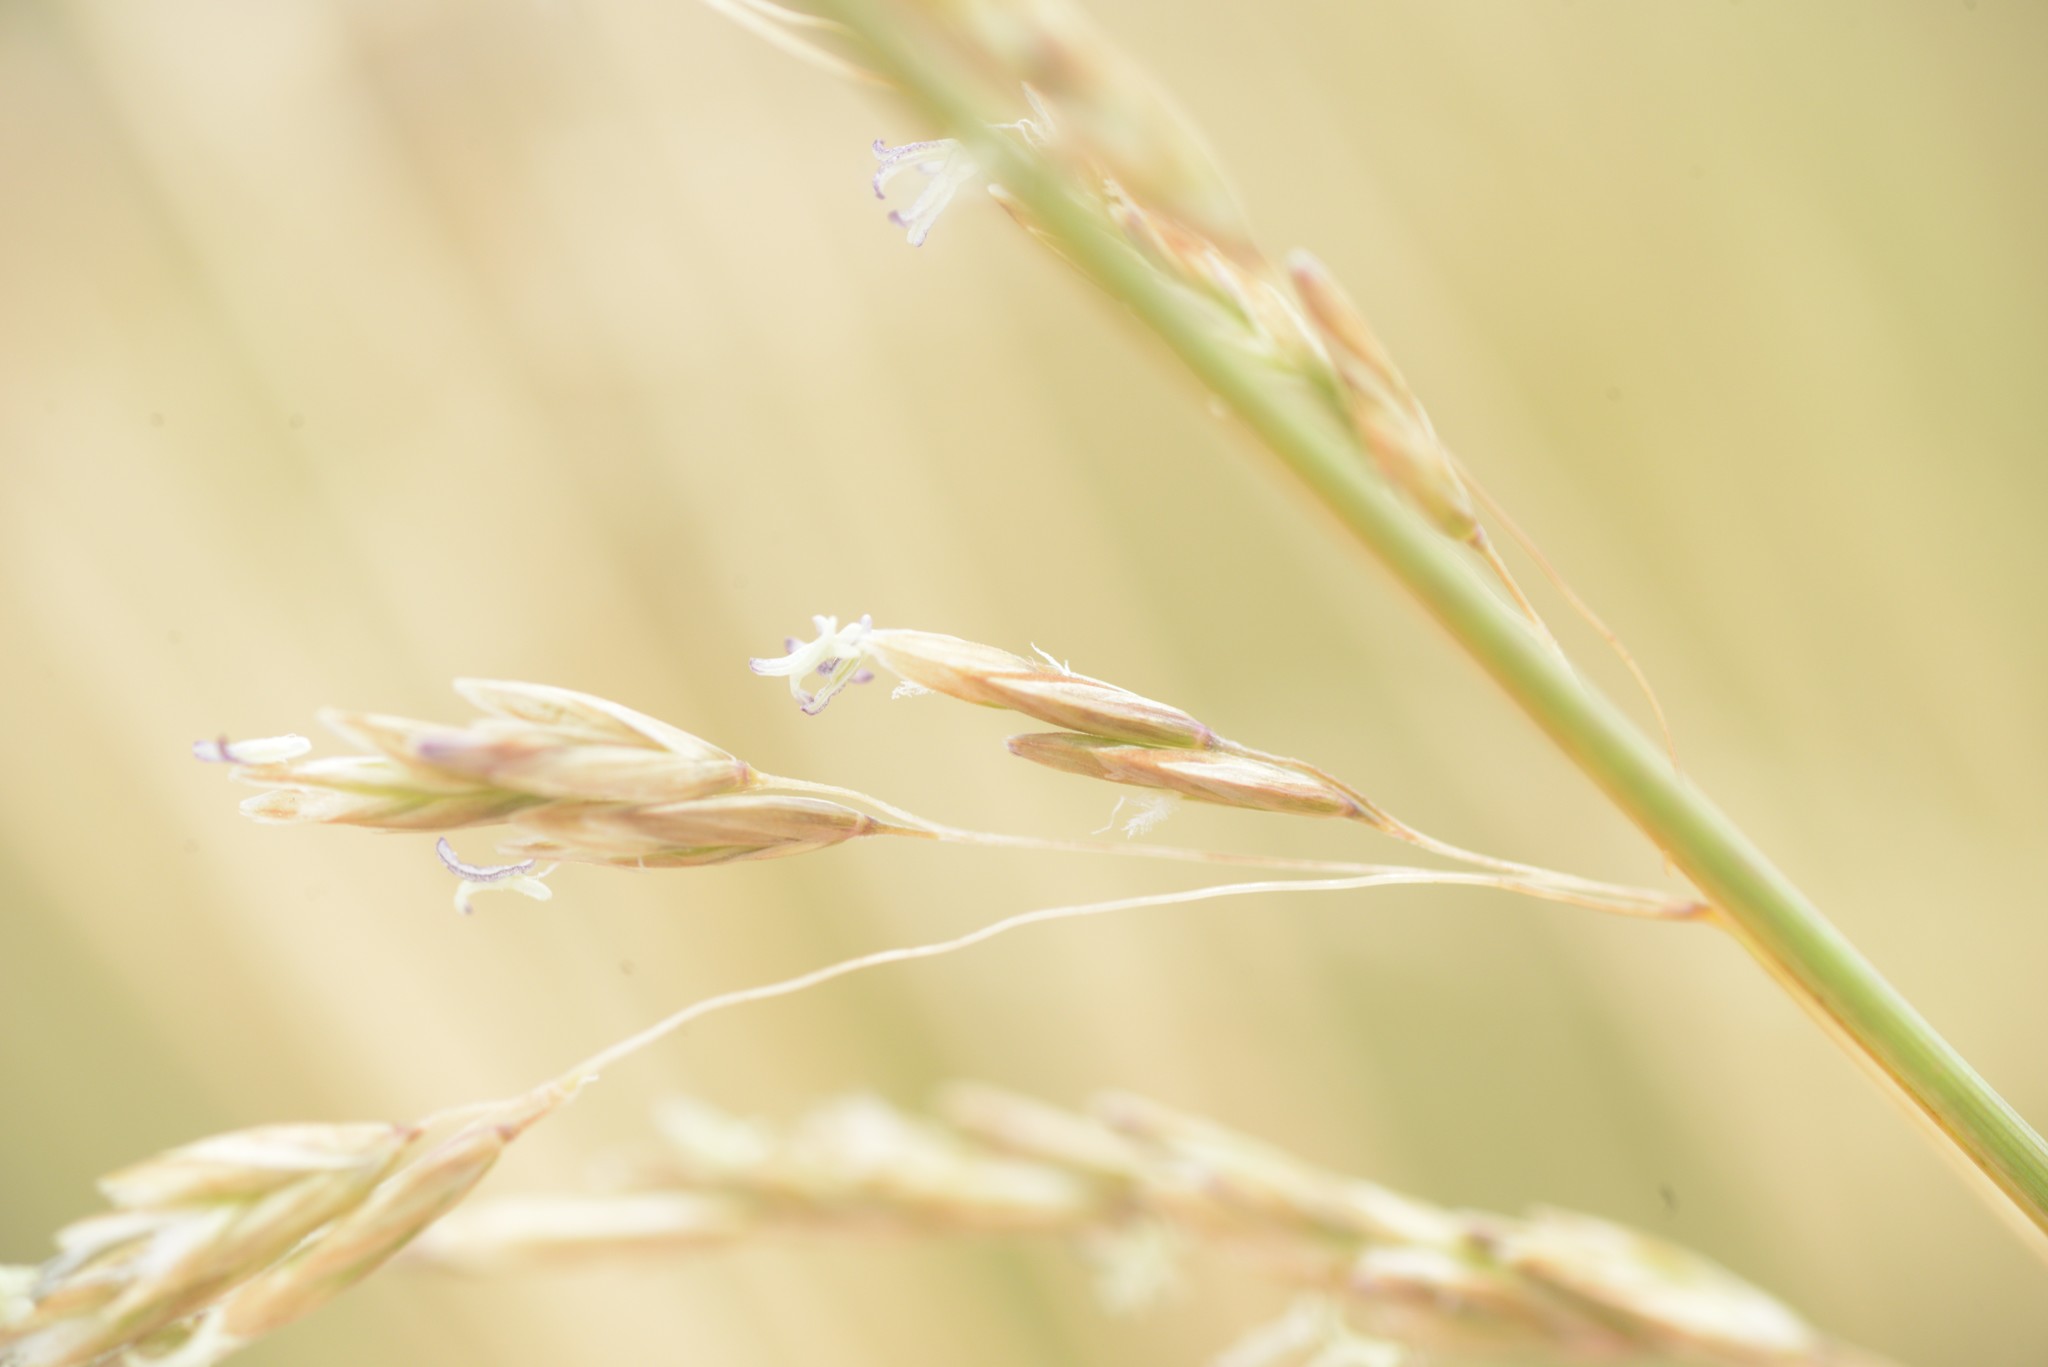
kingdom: Plantae
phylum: Tracheophyta
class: Liliopsida
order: Poales
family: Poaceae
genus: Poa
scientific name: Poa cita
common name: Silver tussock
